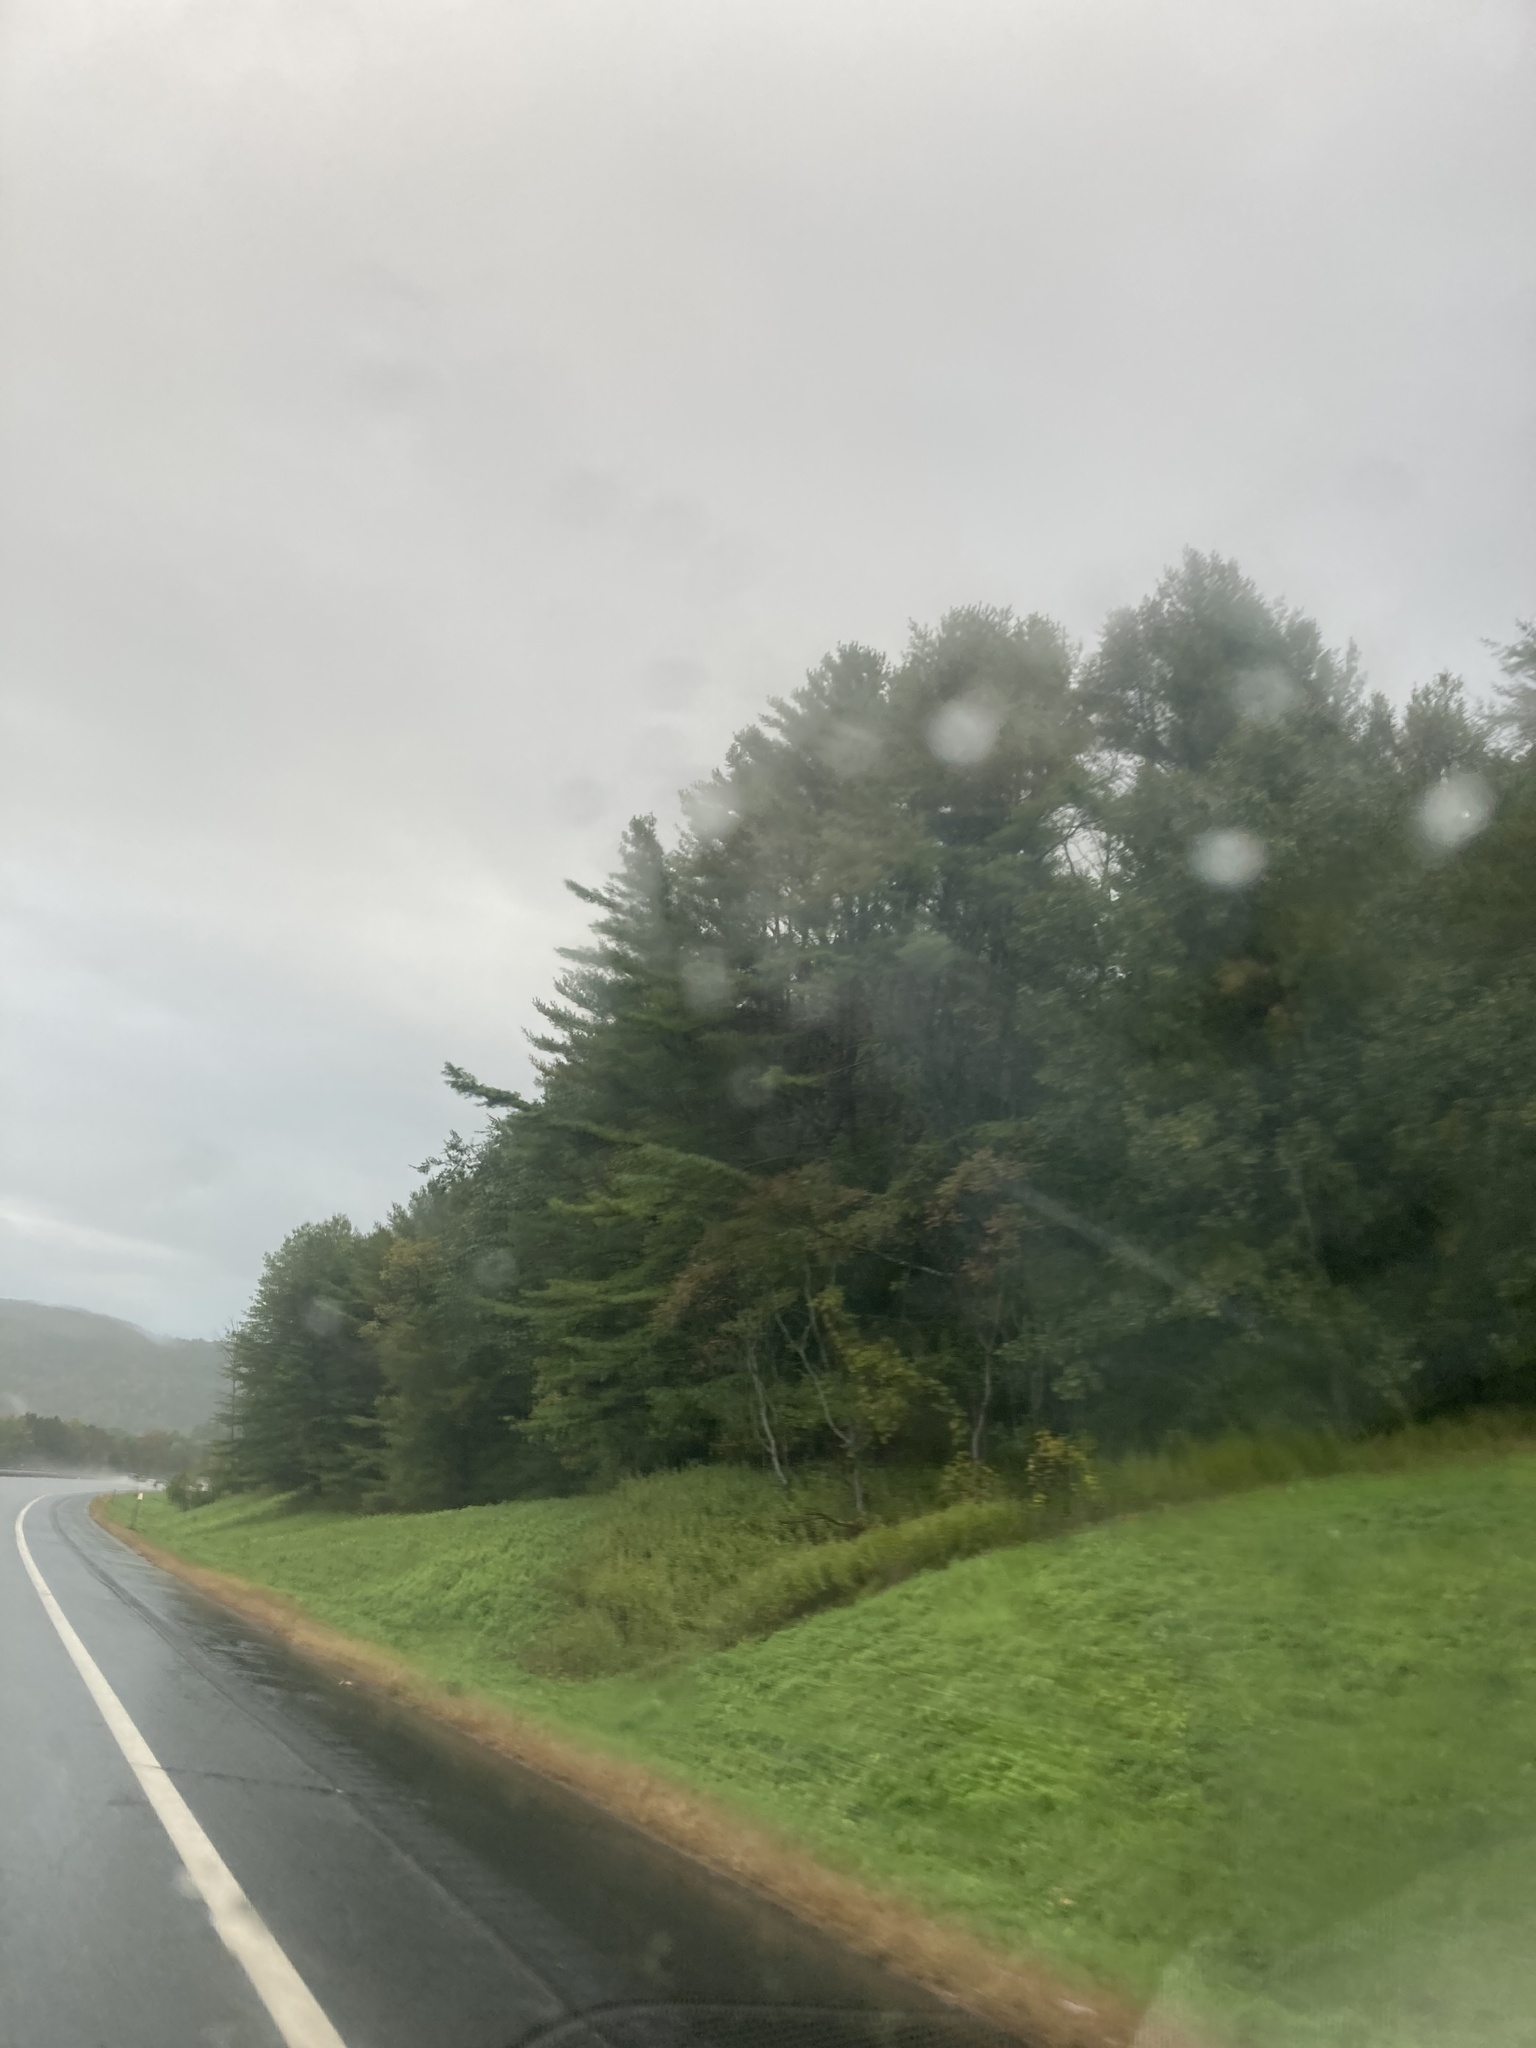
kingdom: Plantae
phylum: Tracheophyta
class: Pinopsida
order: Pinales
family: Pinaceae
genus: Pinus
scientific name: Pinus strobus
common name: Weymouth pine
